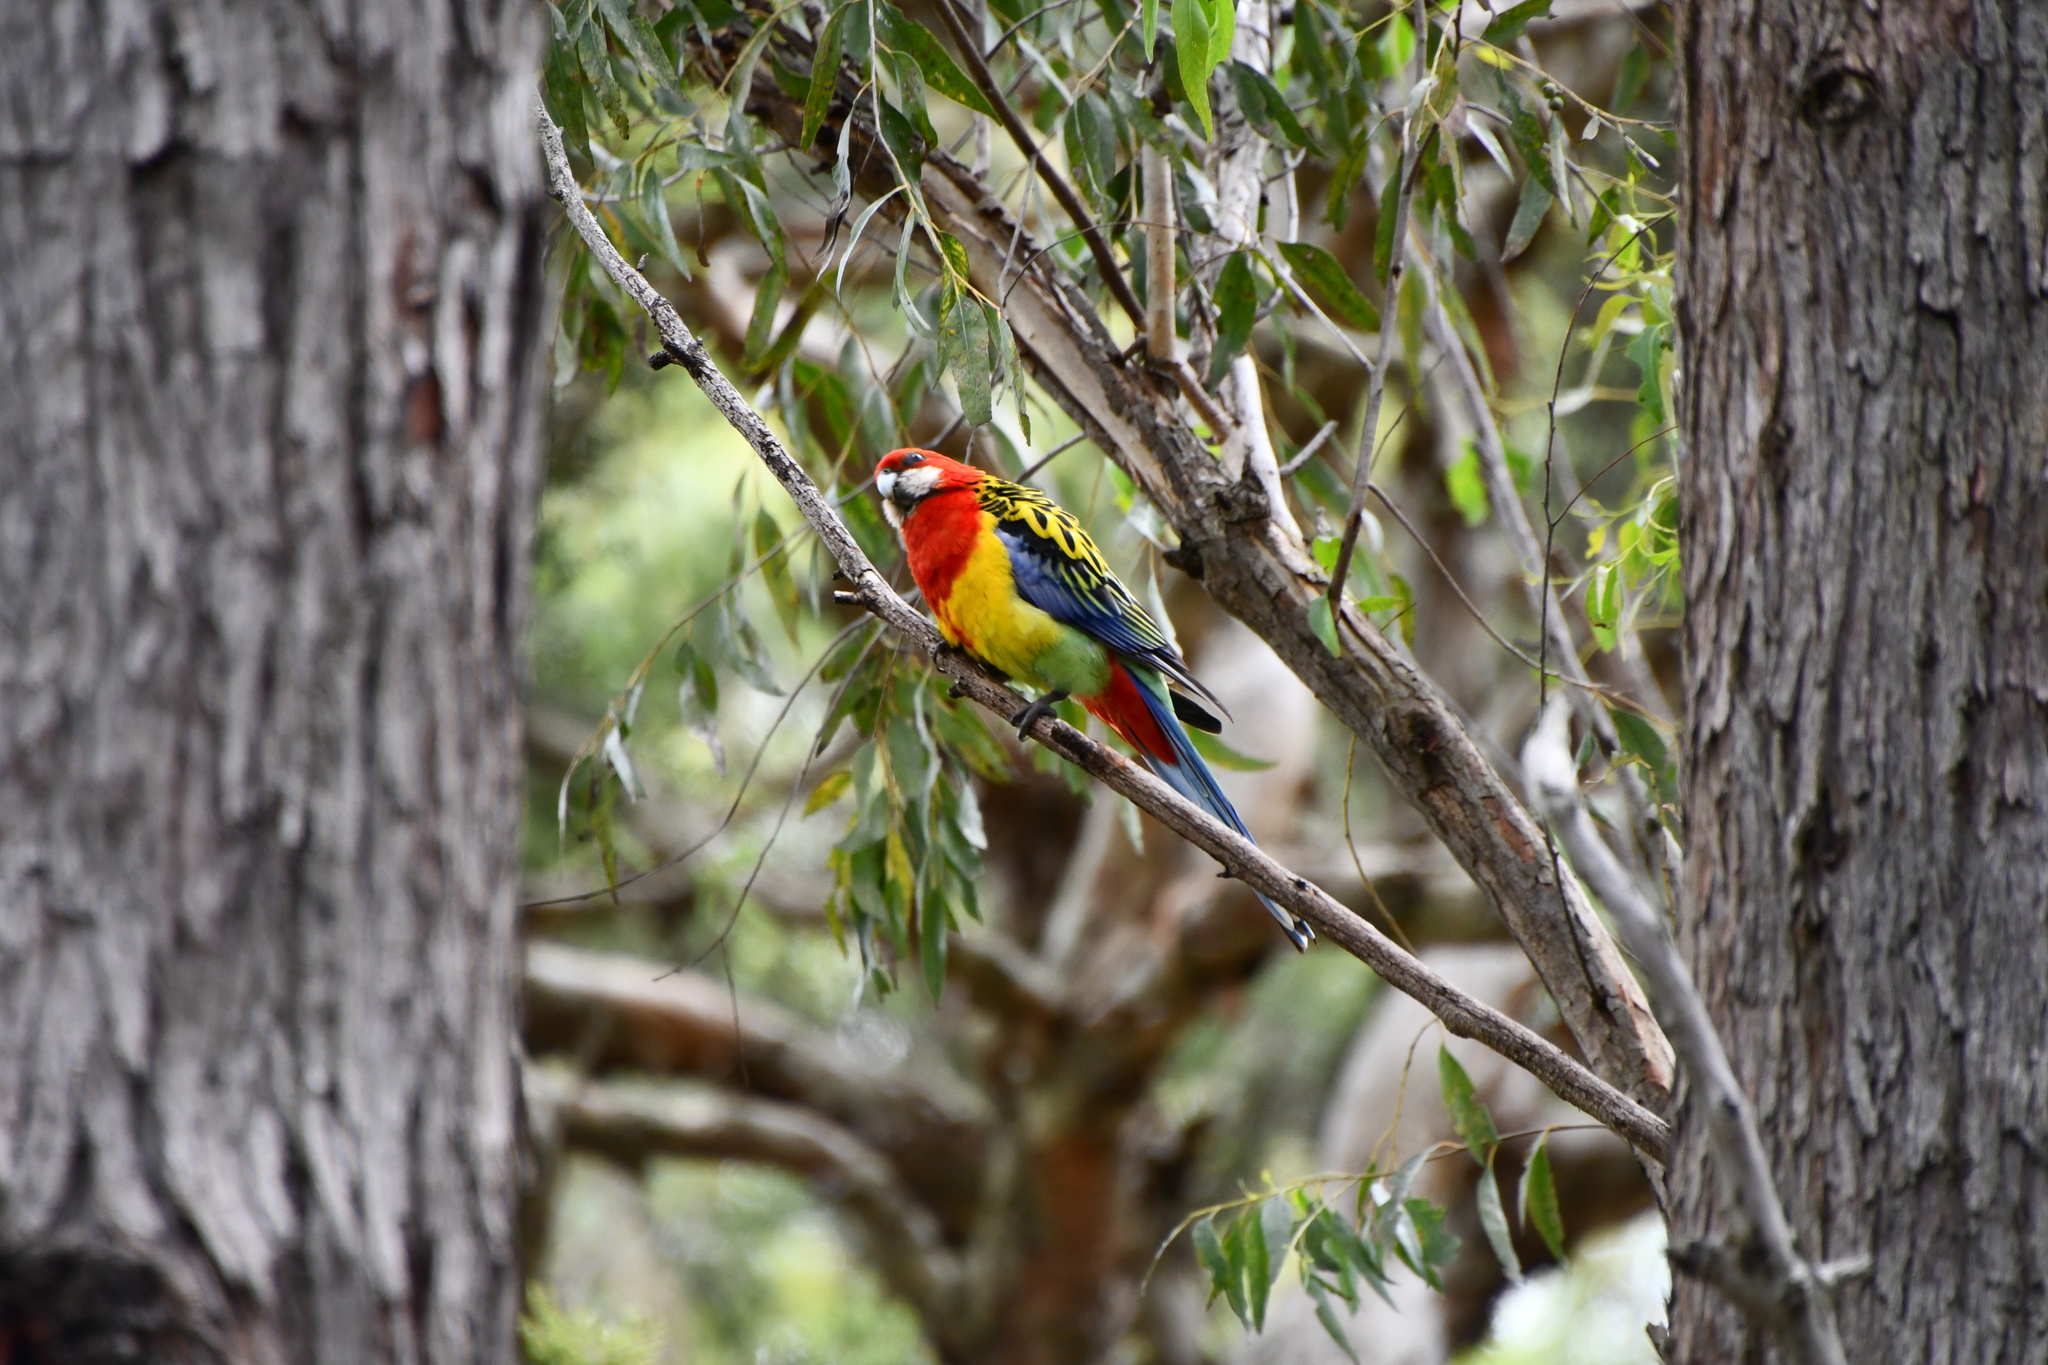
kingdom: Animalia
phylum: Chordata
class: Aves
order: Psittaciformes
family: Psittacidae
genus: Platycercus
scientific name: Platycercus eximius
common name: Eastern rosella
